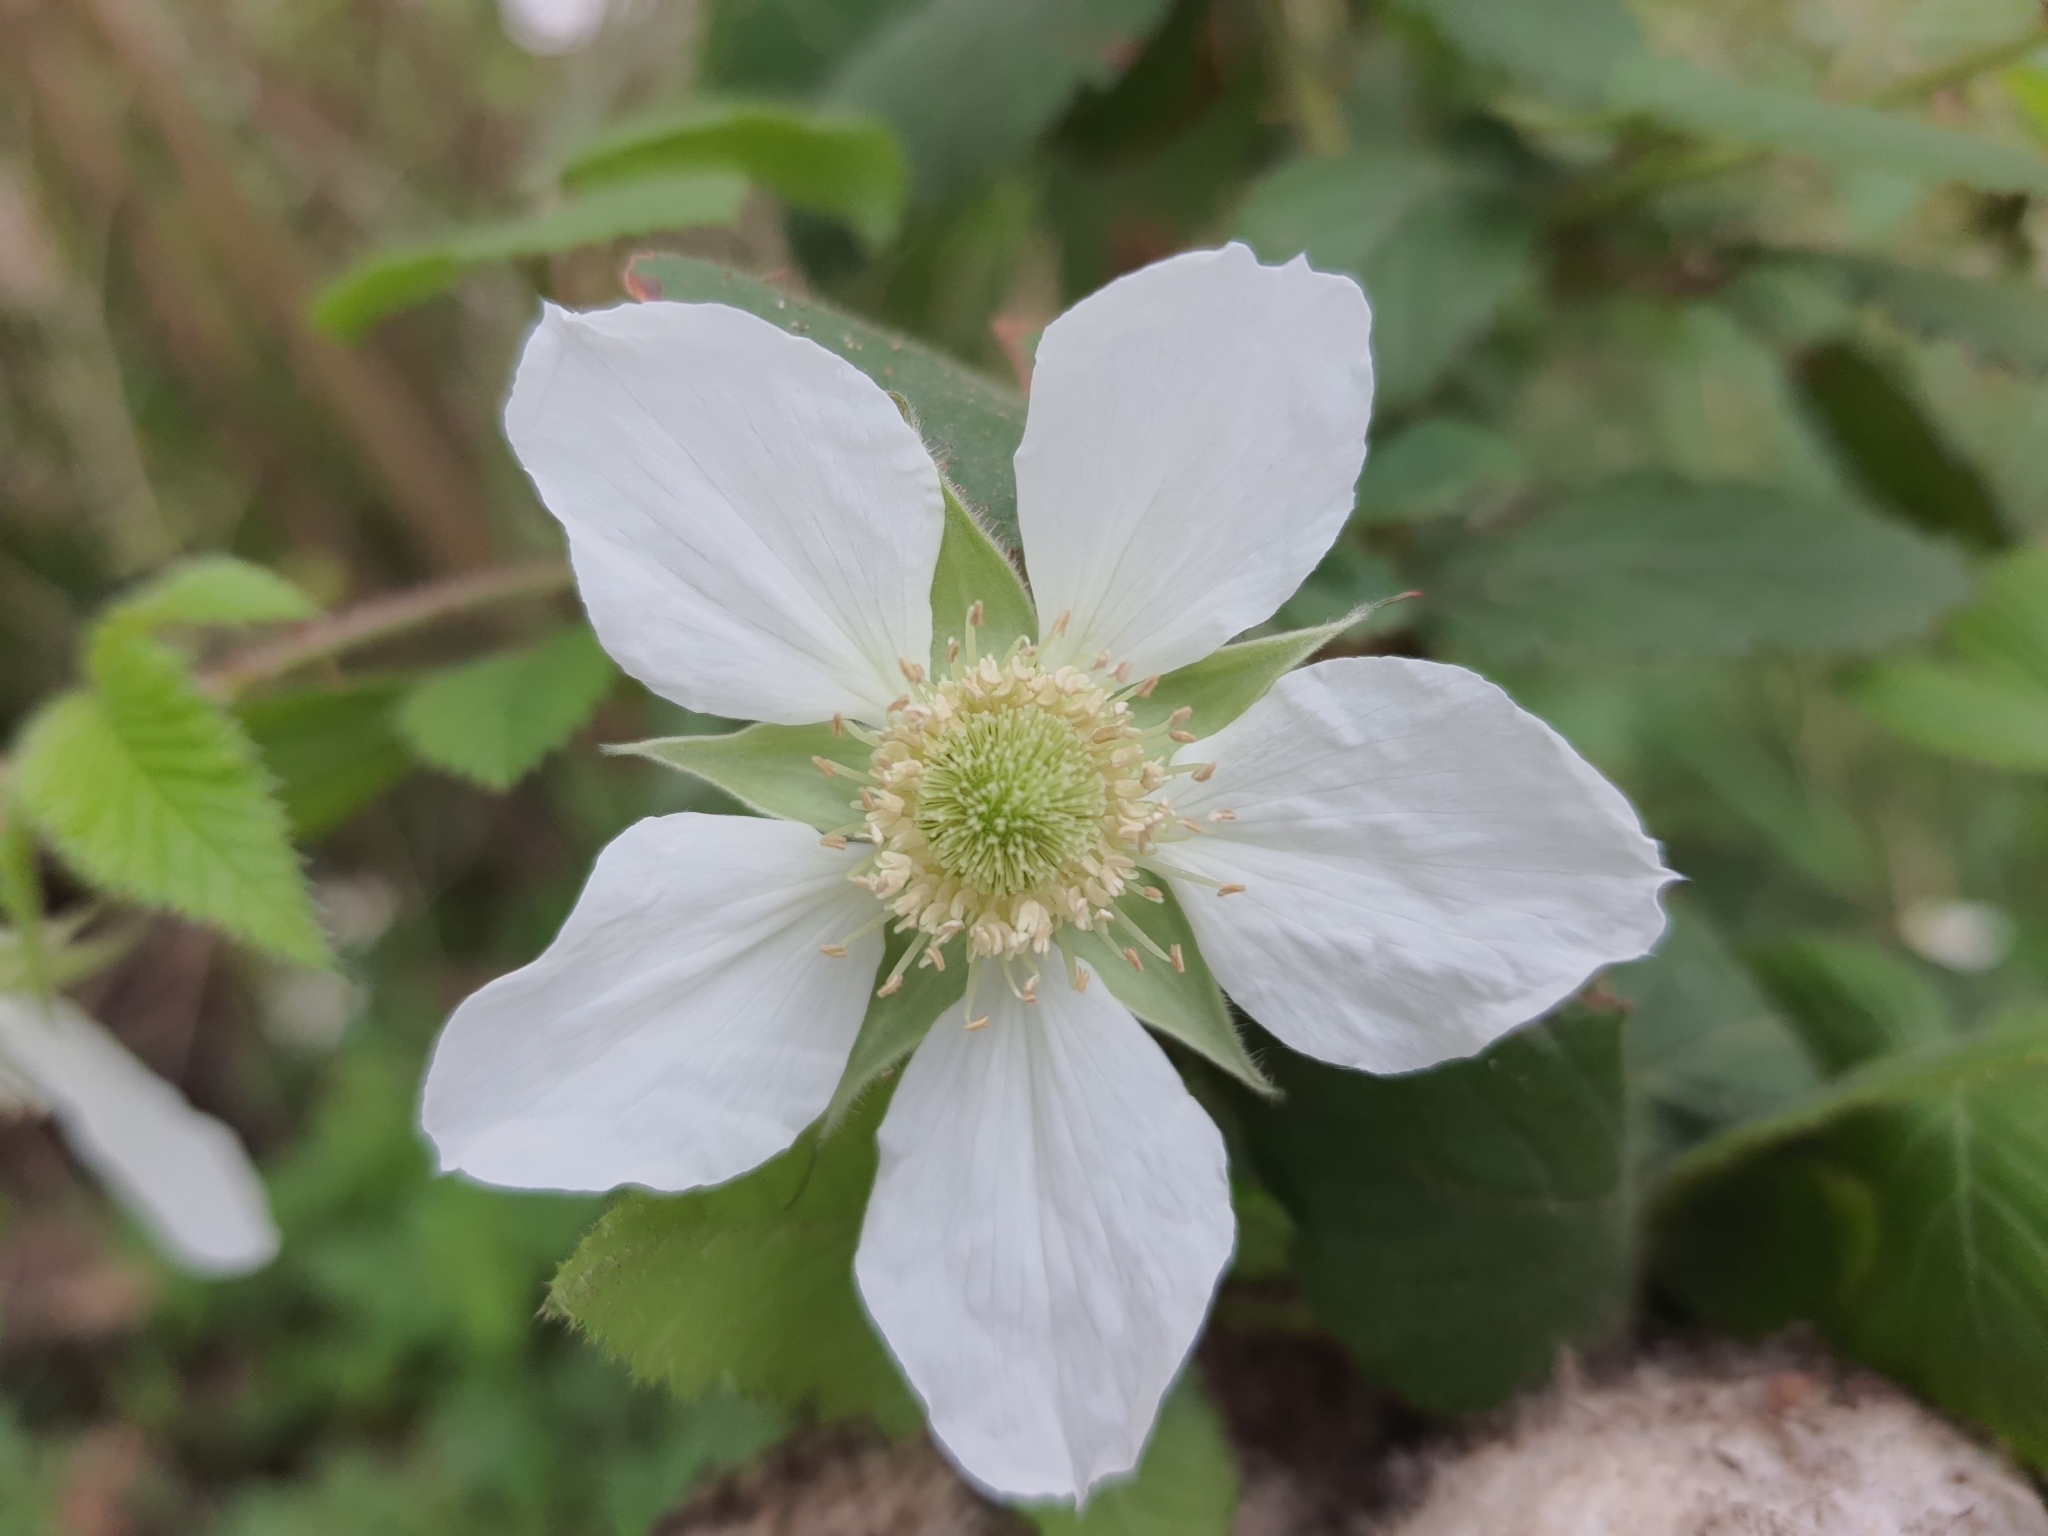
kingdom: Plantae
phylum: Tracheophyta
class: Magnoliopsida
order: Rosales
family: Rosaceae
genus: Rubus
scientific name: Rubus croceacanthus
